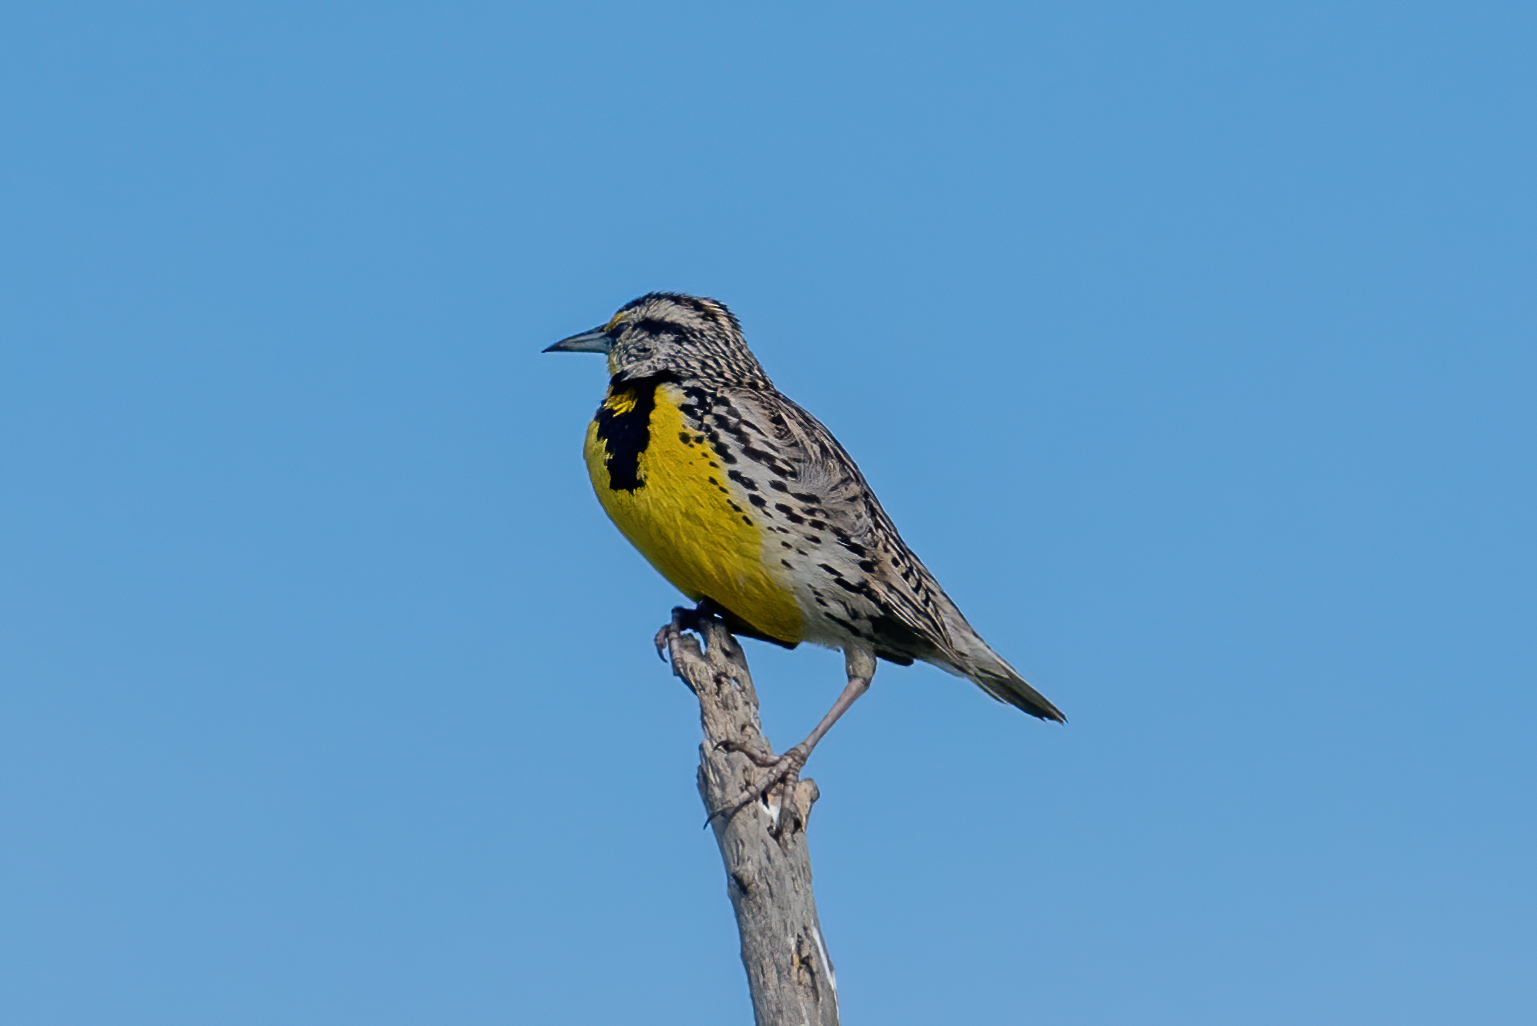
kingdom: Animalia
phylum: Chordata
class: Aves
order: Passeriformes
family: Icteridae
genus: Sturnella
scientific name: Sturnella neglecta
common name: Western meadowlark
